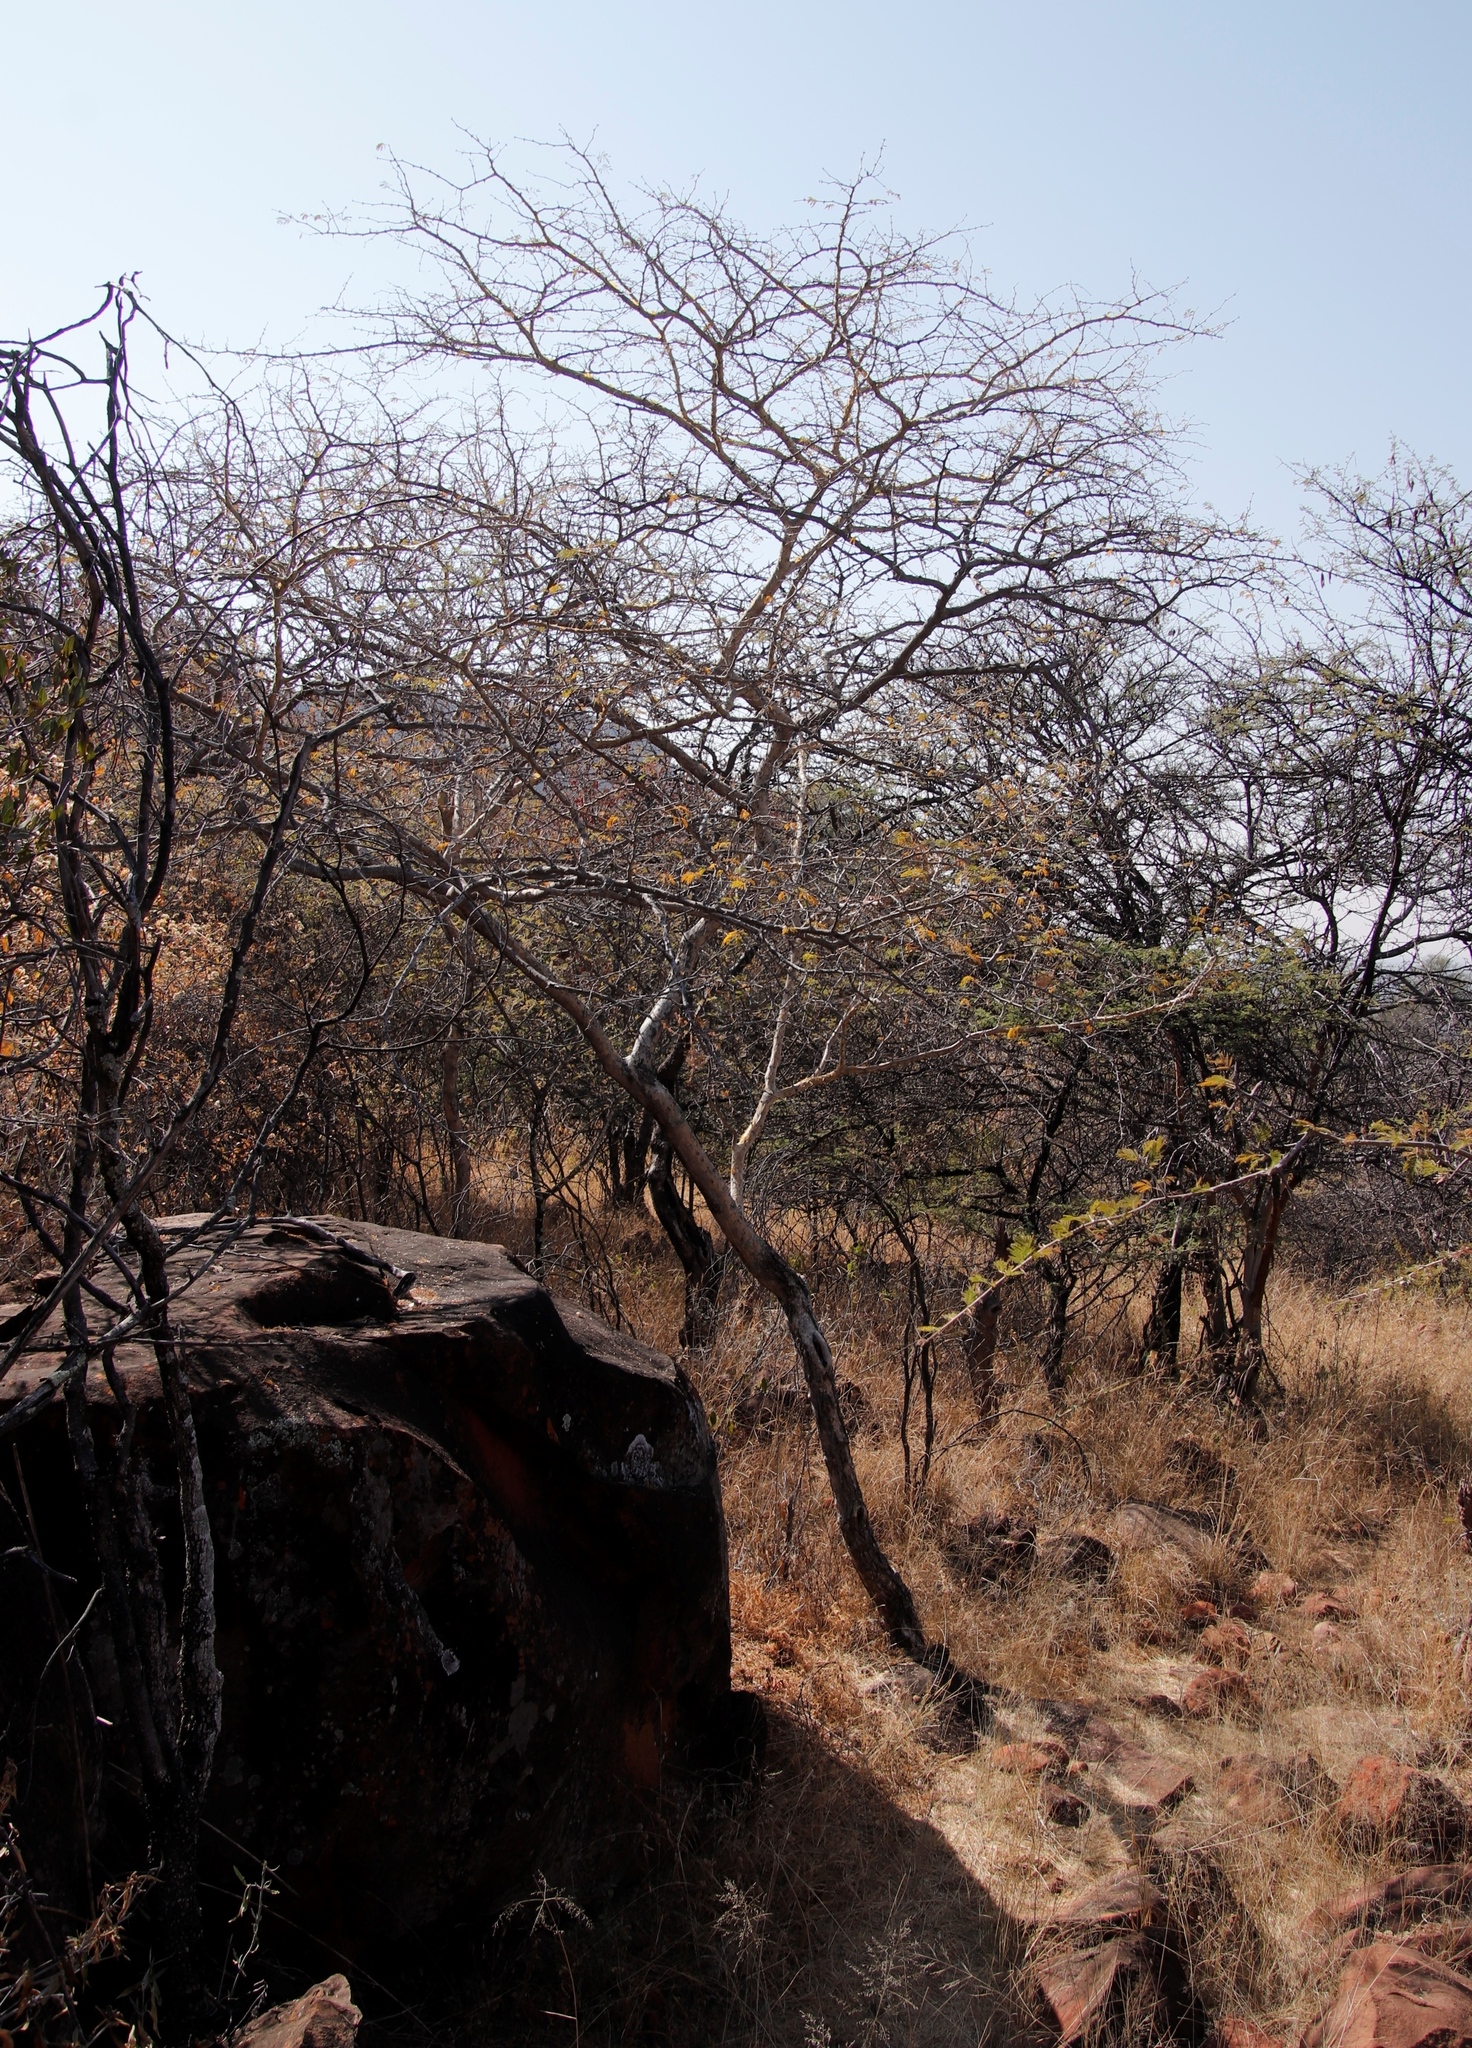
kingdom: Plantae
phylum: Tracheophyta
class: Magnoliopsida
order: Fabales
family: Fabaceae
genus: Senegalia
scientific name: Senegalia erubescens
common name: Bluethorn
